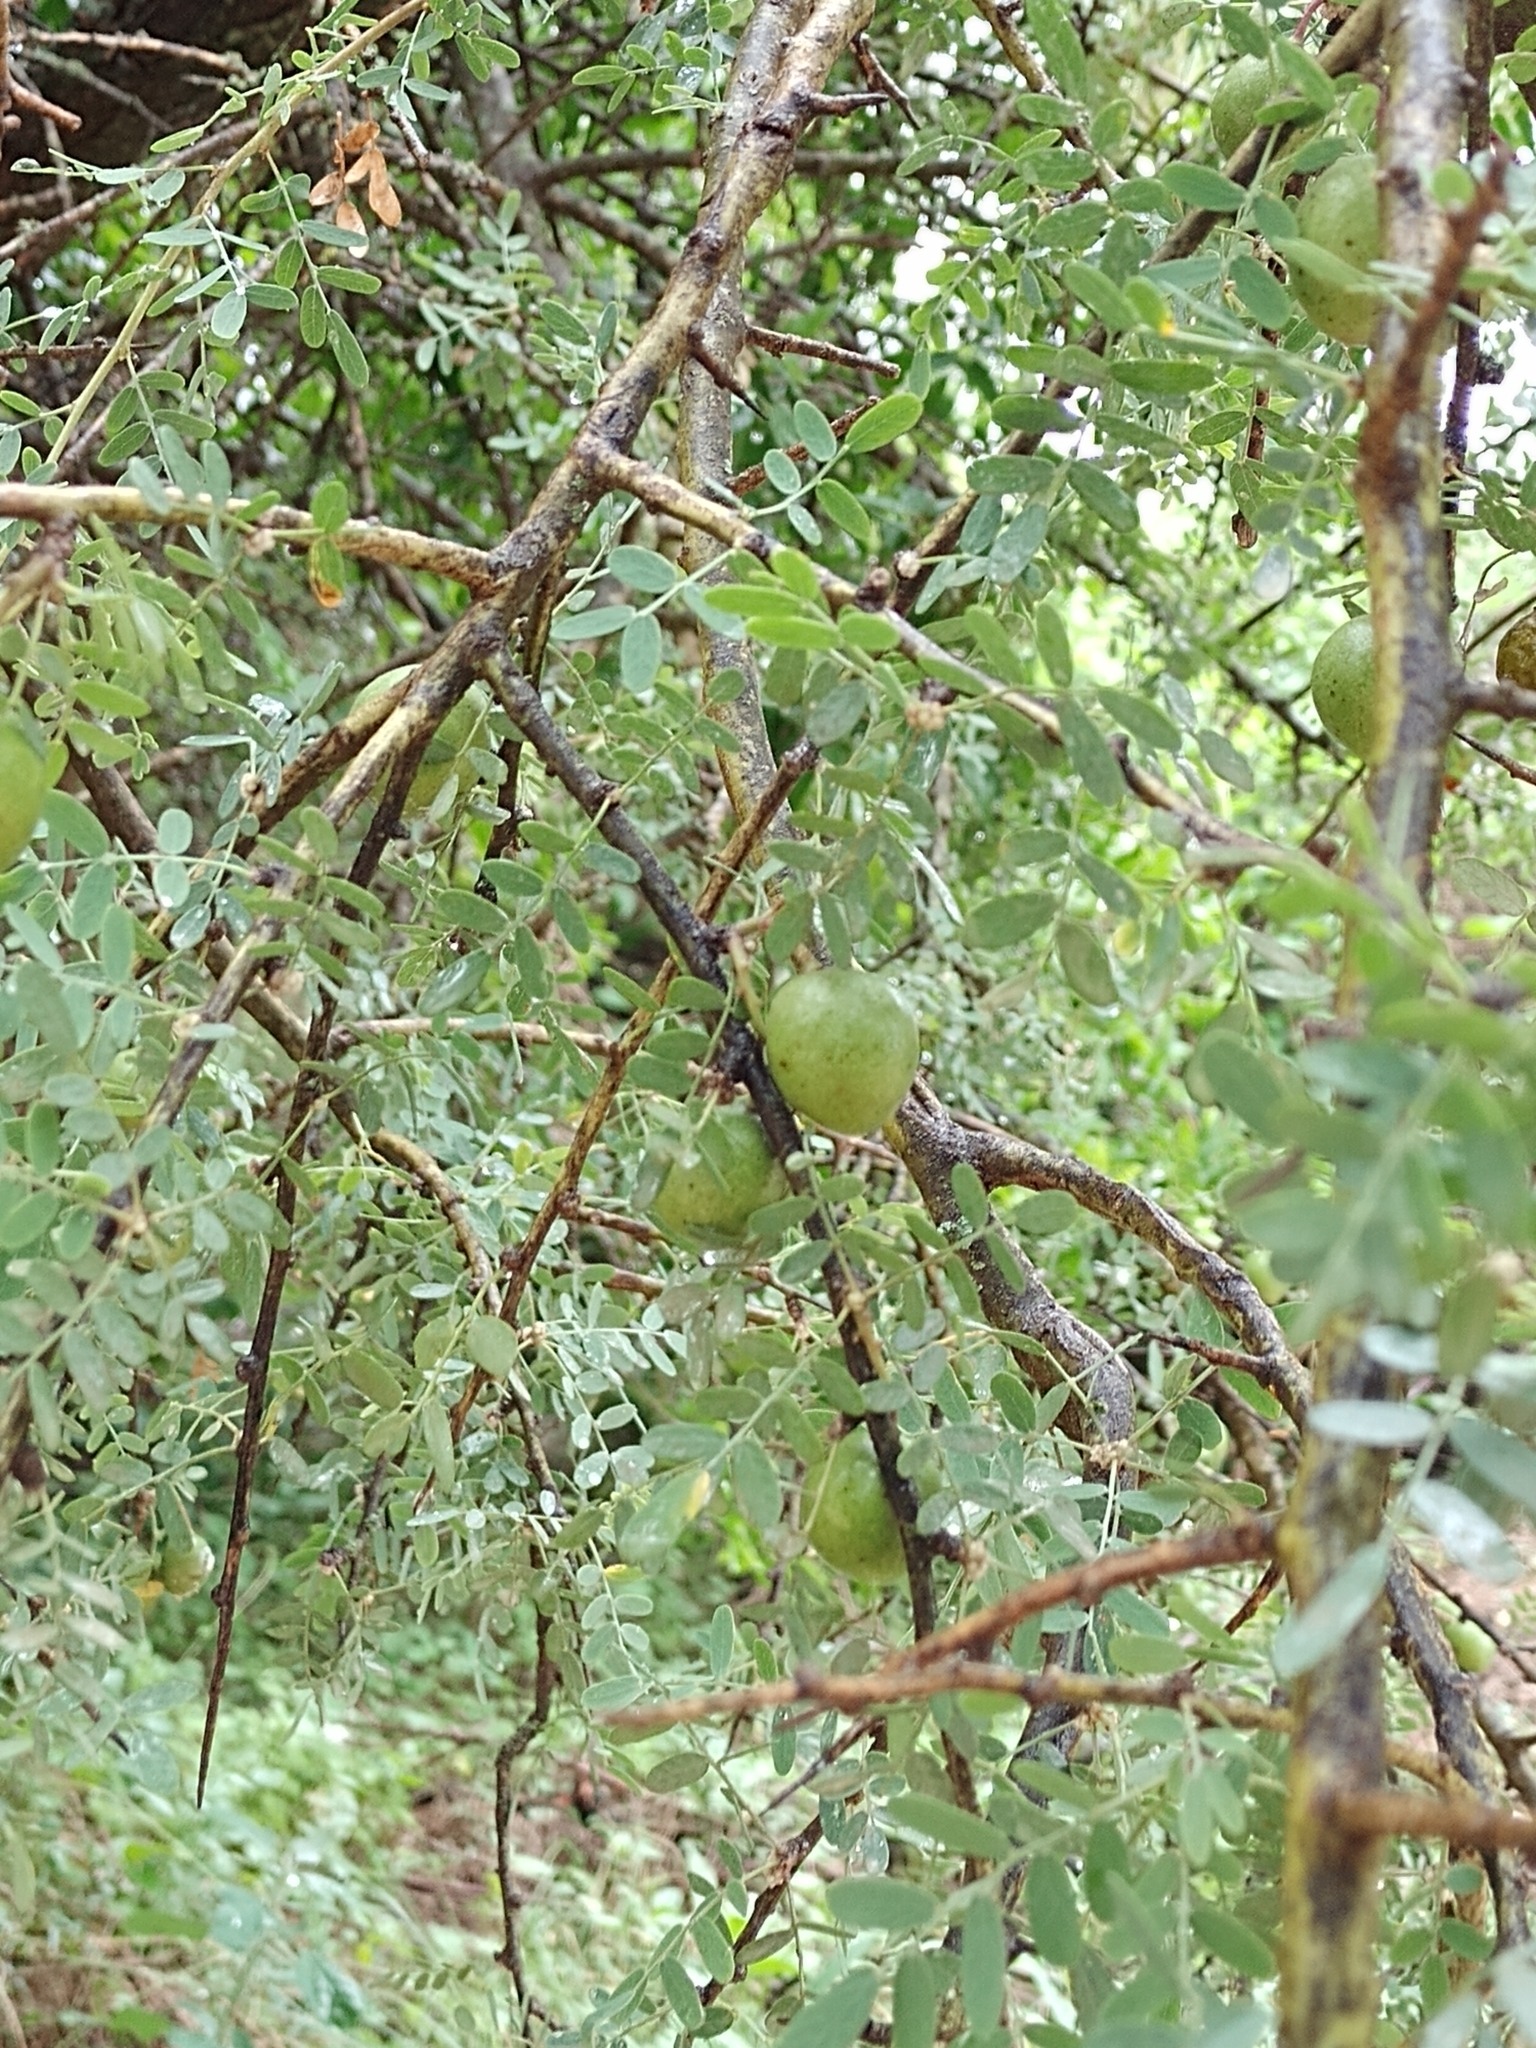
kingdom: Plantae
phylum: Tracheophyta
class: Magnoliopsida
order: Fabales
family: Fabaceae
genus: Geoffroea
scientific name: Geoffroea decorticans
